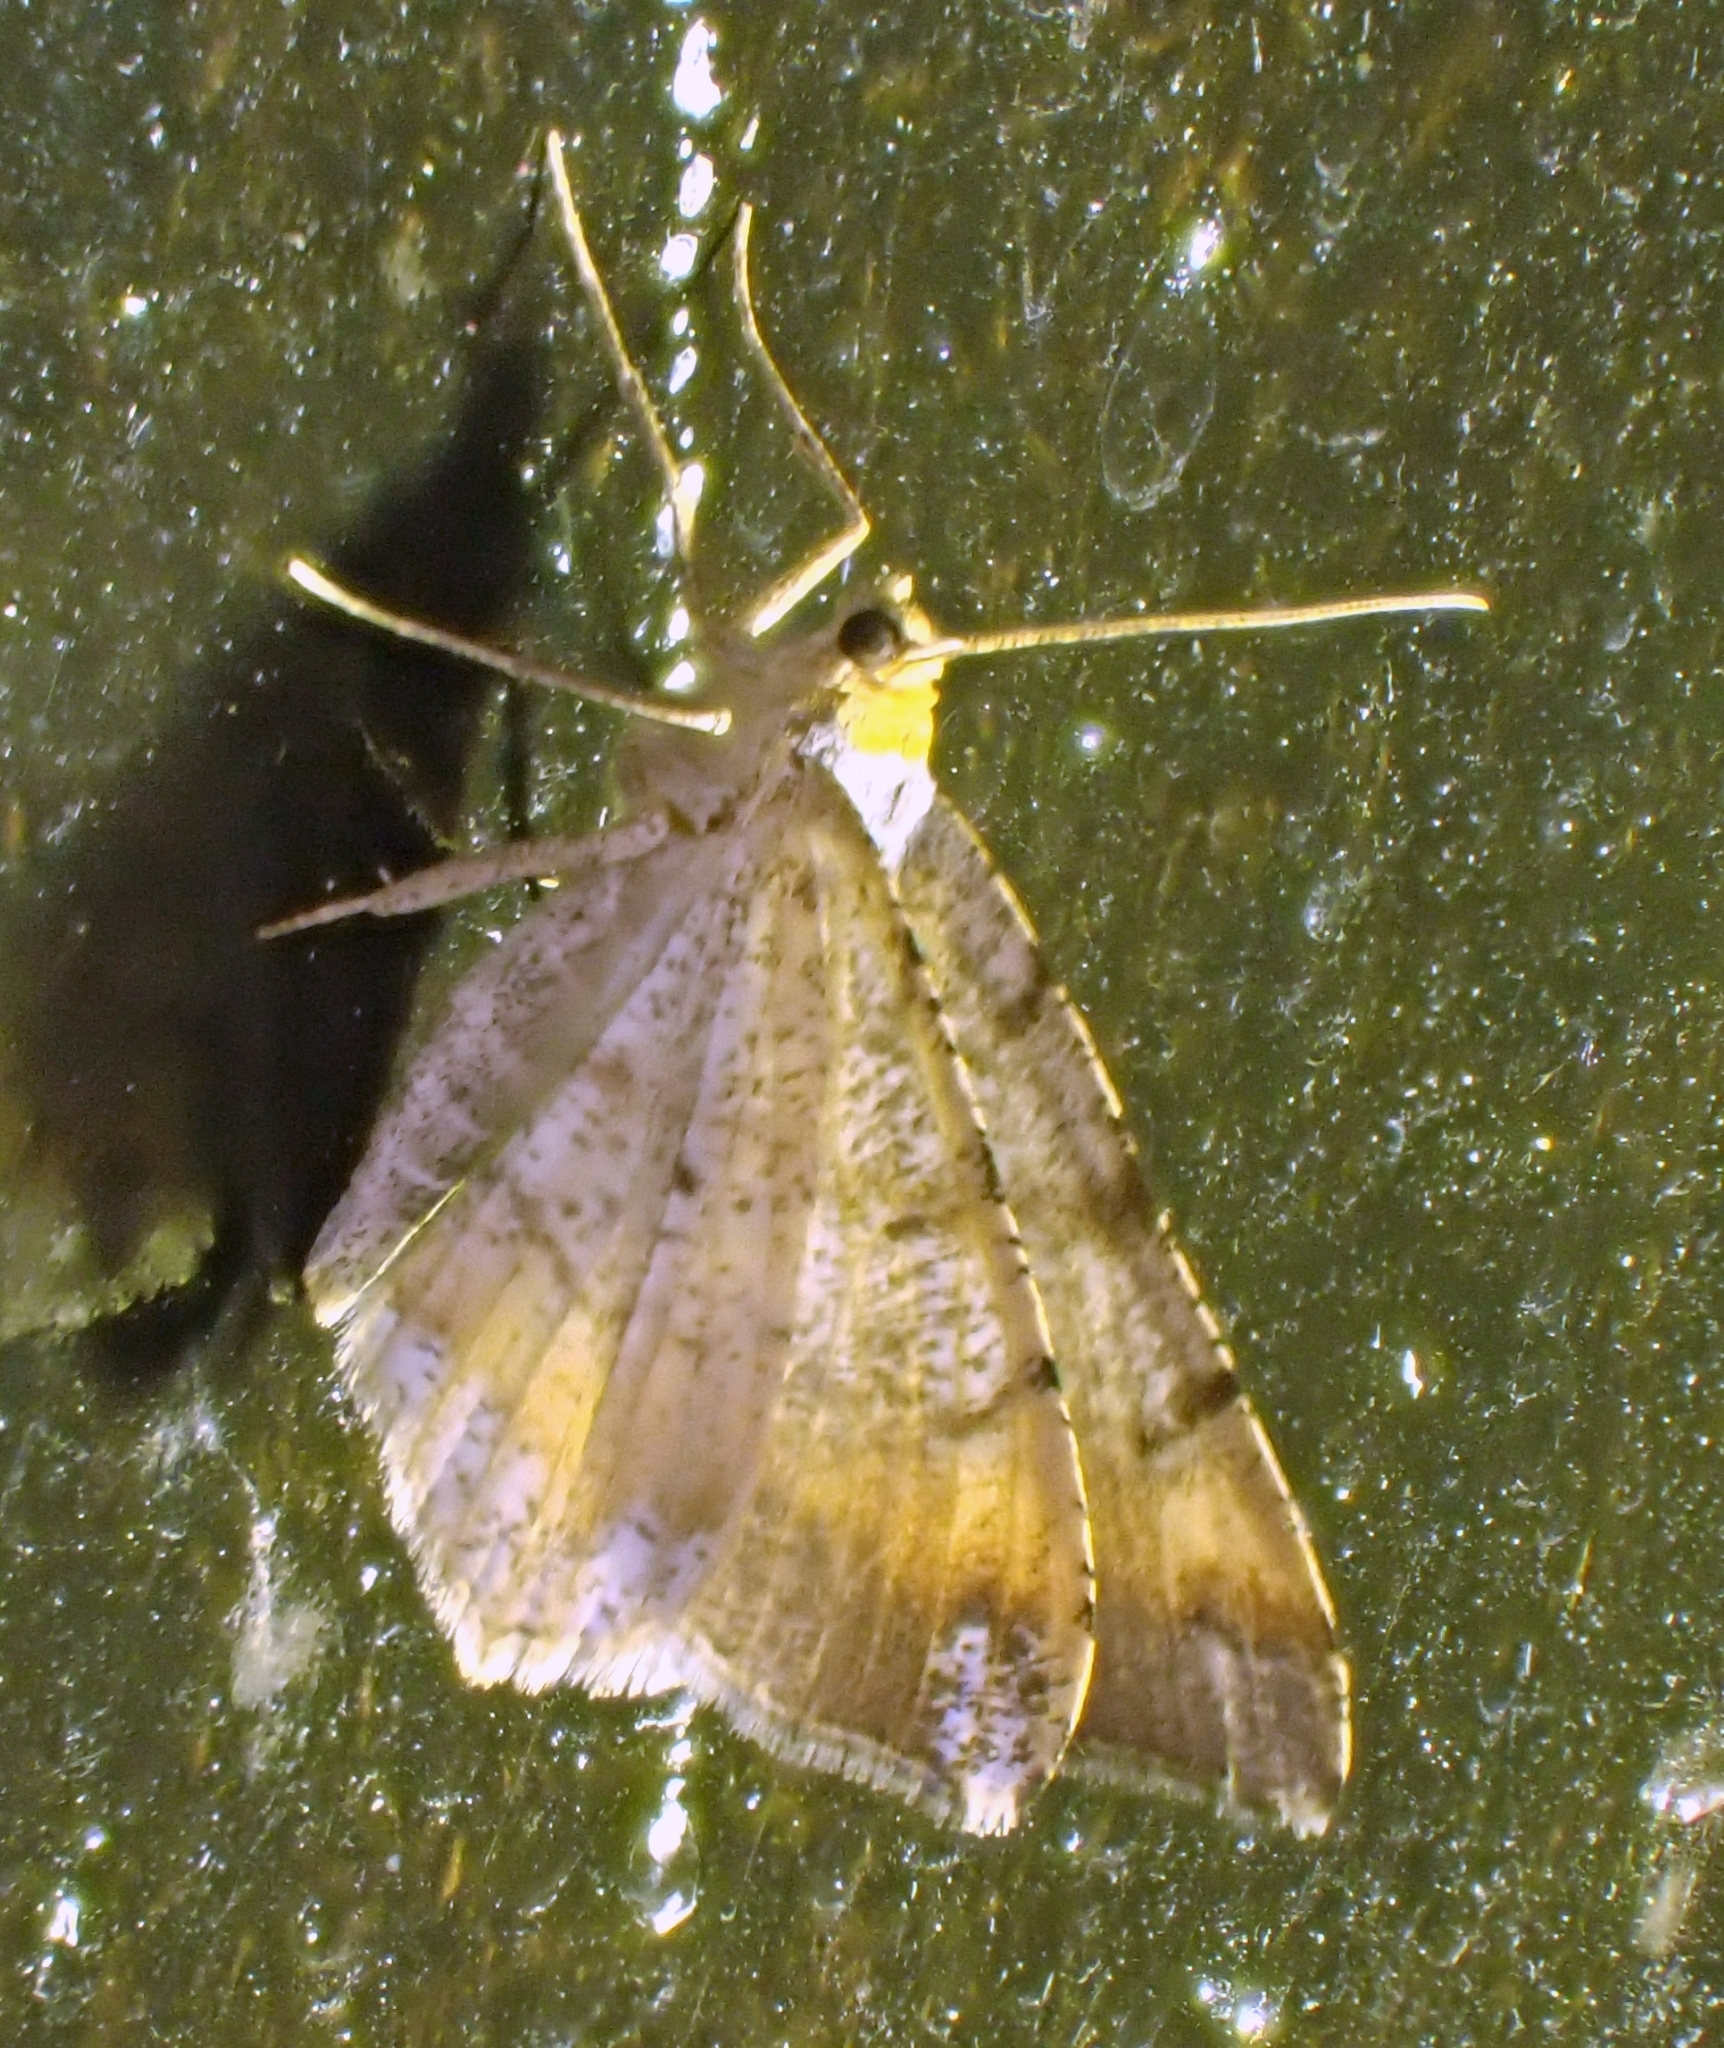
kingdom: Animalia
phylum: Arthropoda
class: Insecta
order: Lepidoptera
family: Geometridae
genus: Macaria
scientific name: Macaria liturata
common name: Tawny-barred angle
